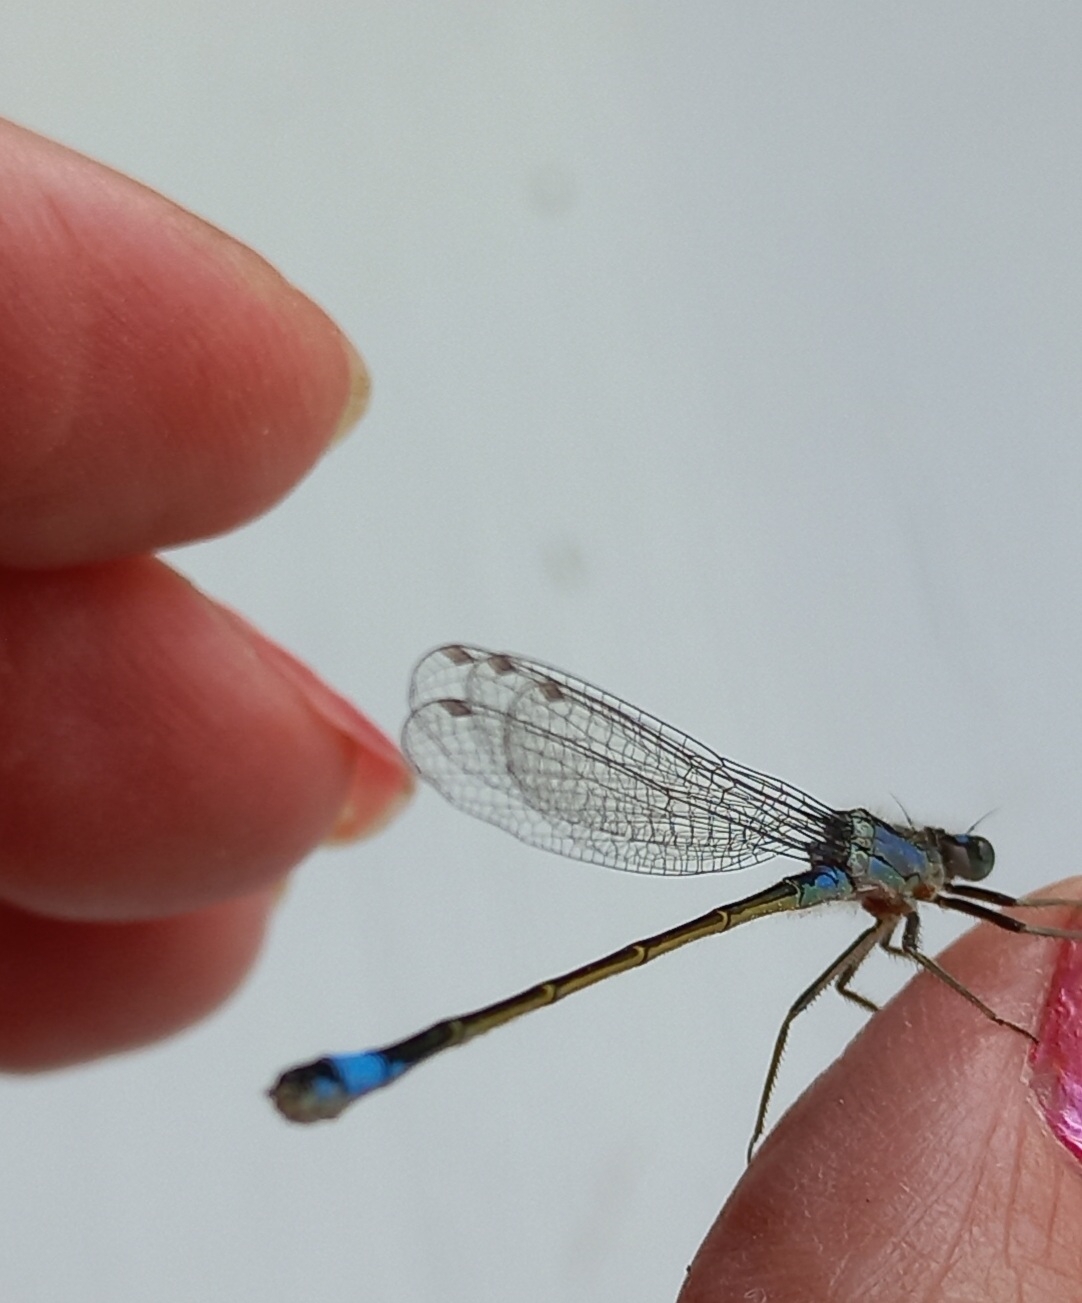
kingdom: Animalia
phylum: Arthropoda
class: Insecta
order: Odonata
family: Coenagrionidae
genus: Ischnura
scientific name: Ischnura elegans
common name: Blue-tailed damselfly
